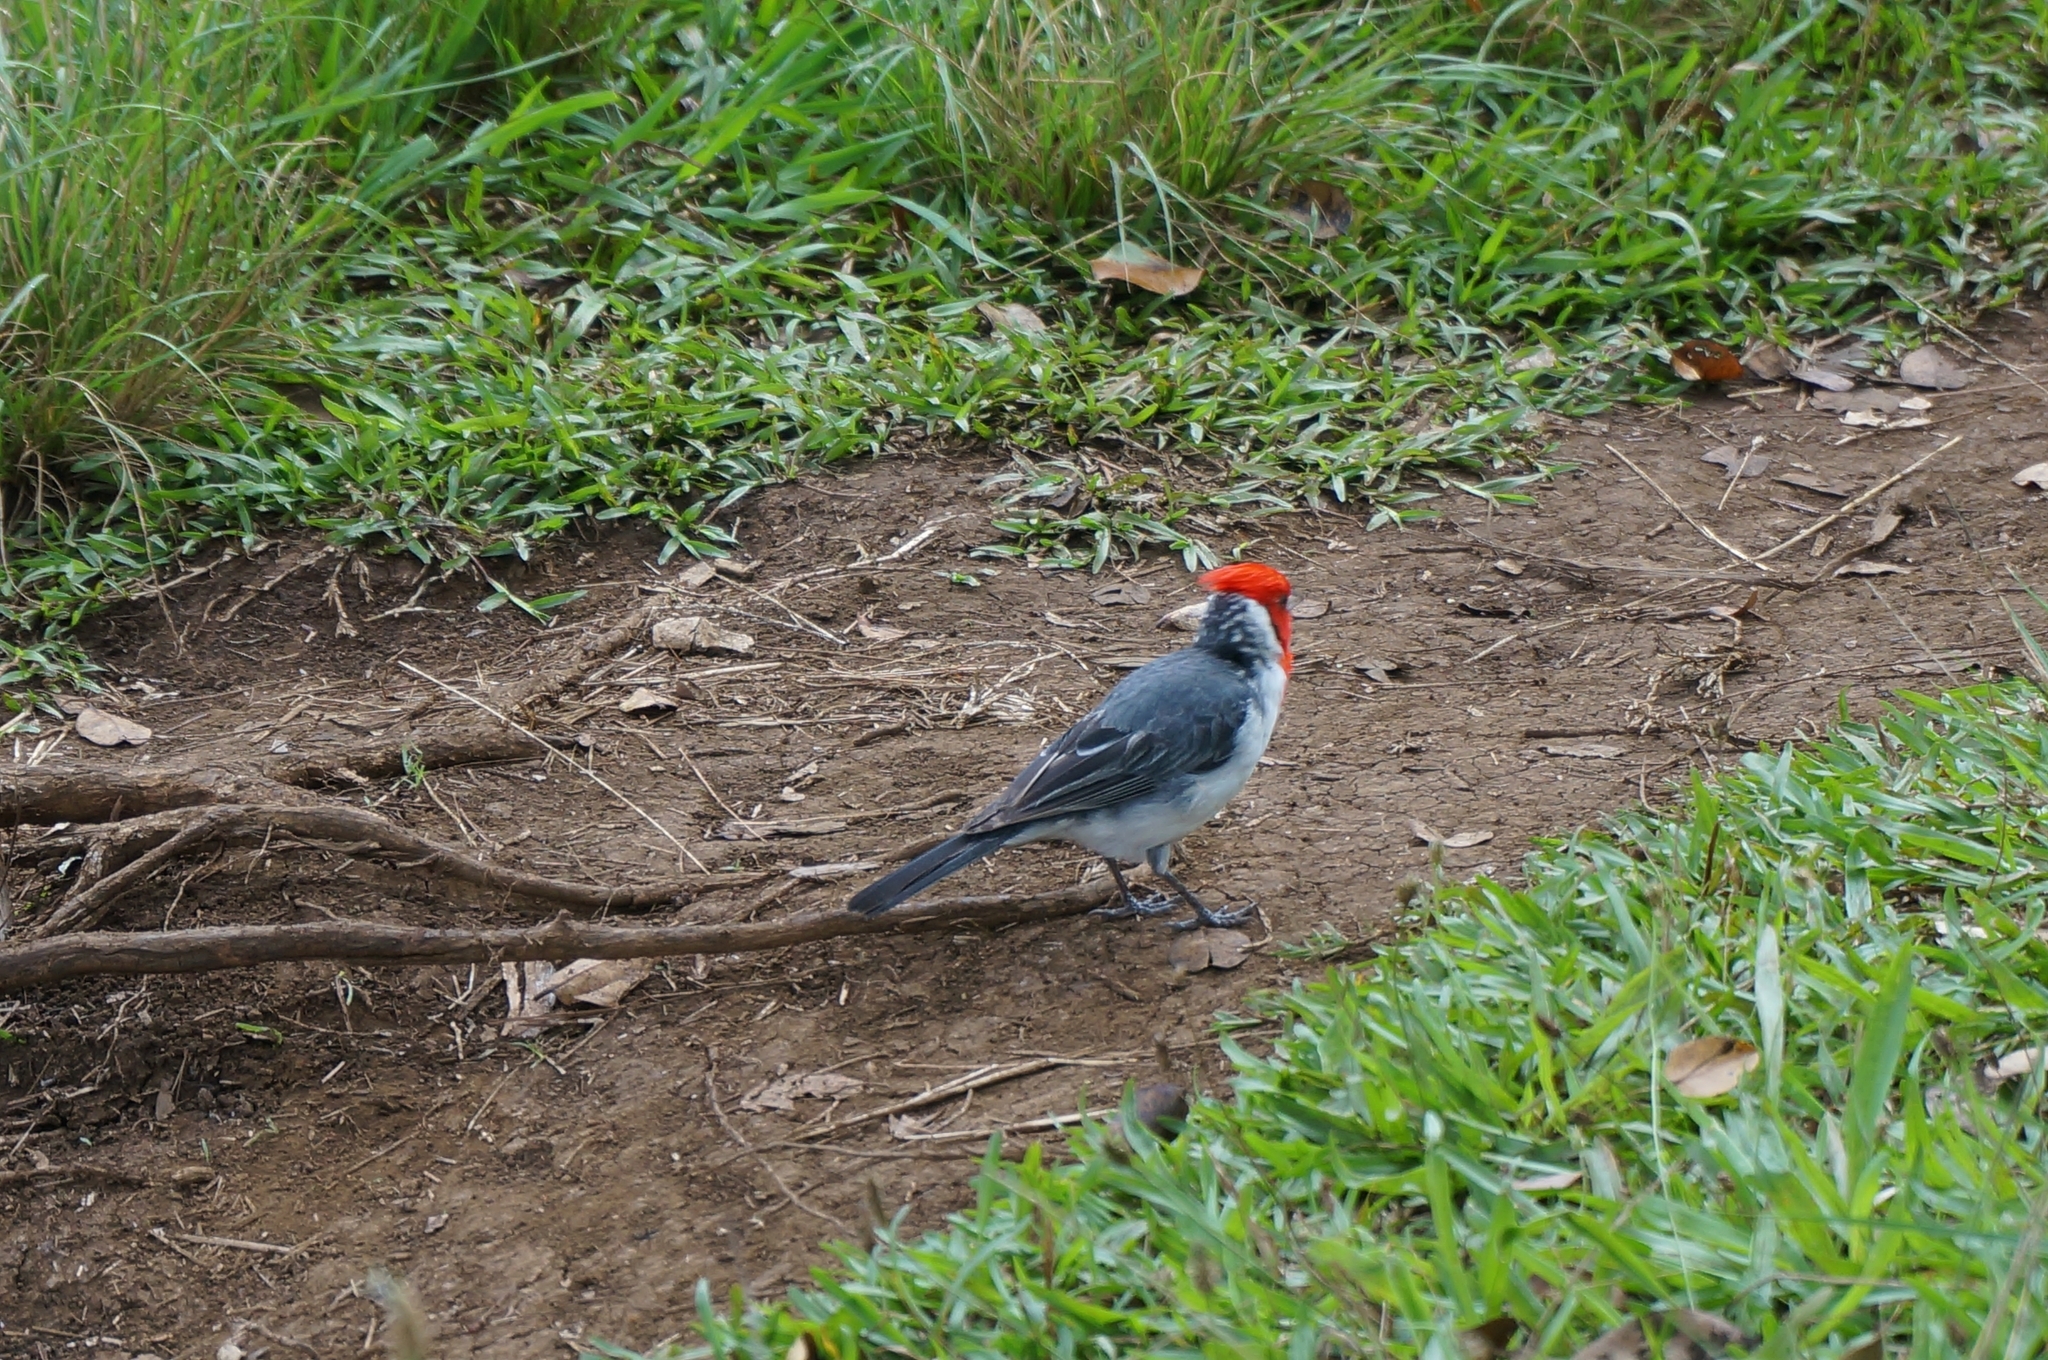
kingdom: Animalia
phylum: Chordata
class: Aves
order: Passeriformes
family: Thraupidae
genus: Paroaria
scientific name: Paroaria coronata
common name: Red-crested cardinal
